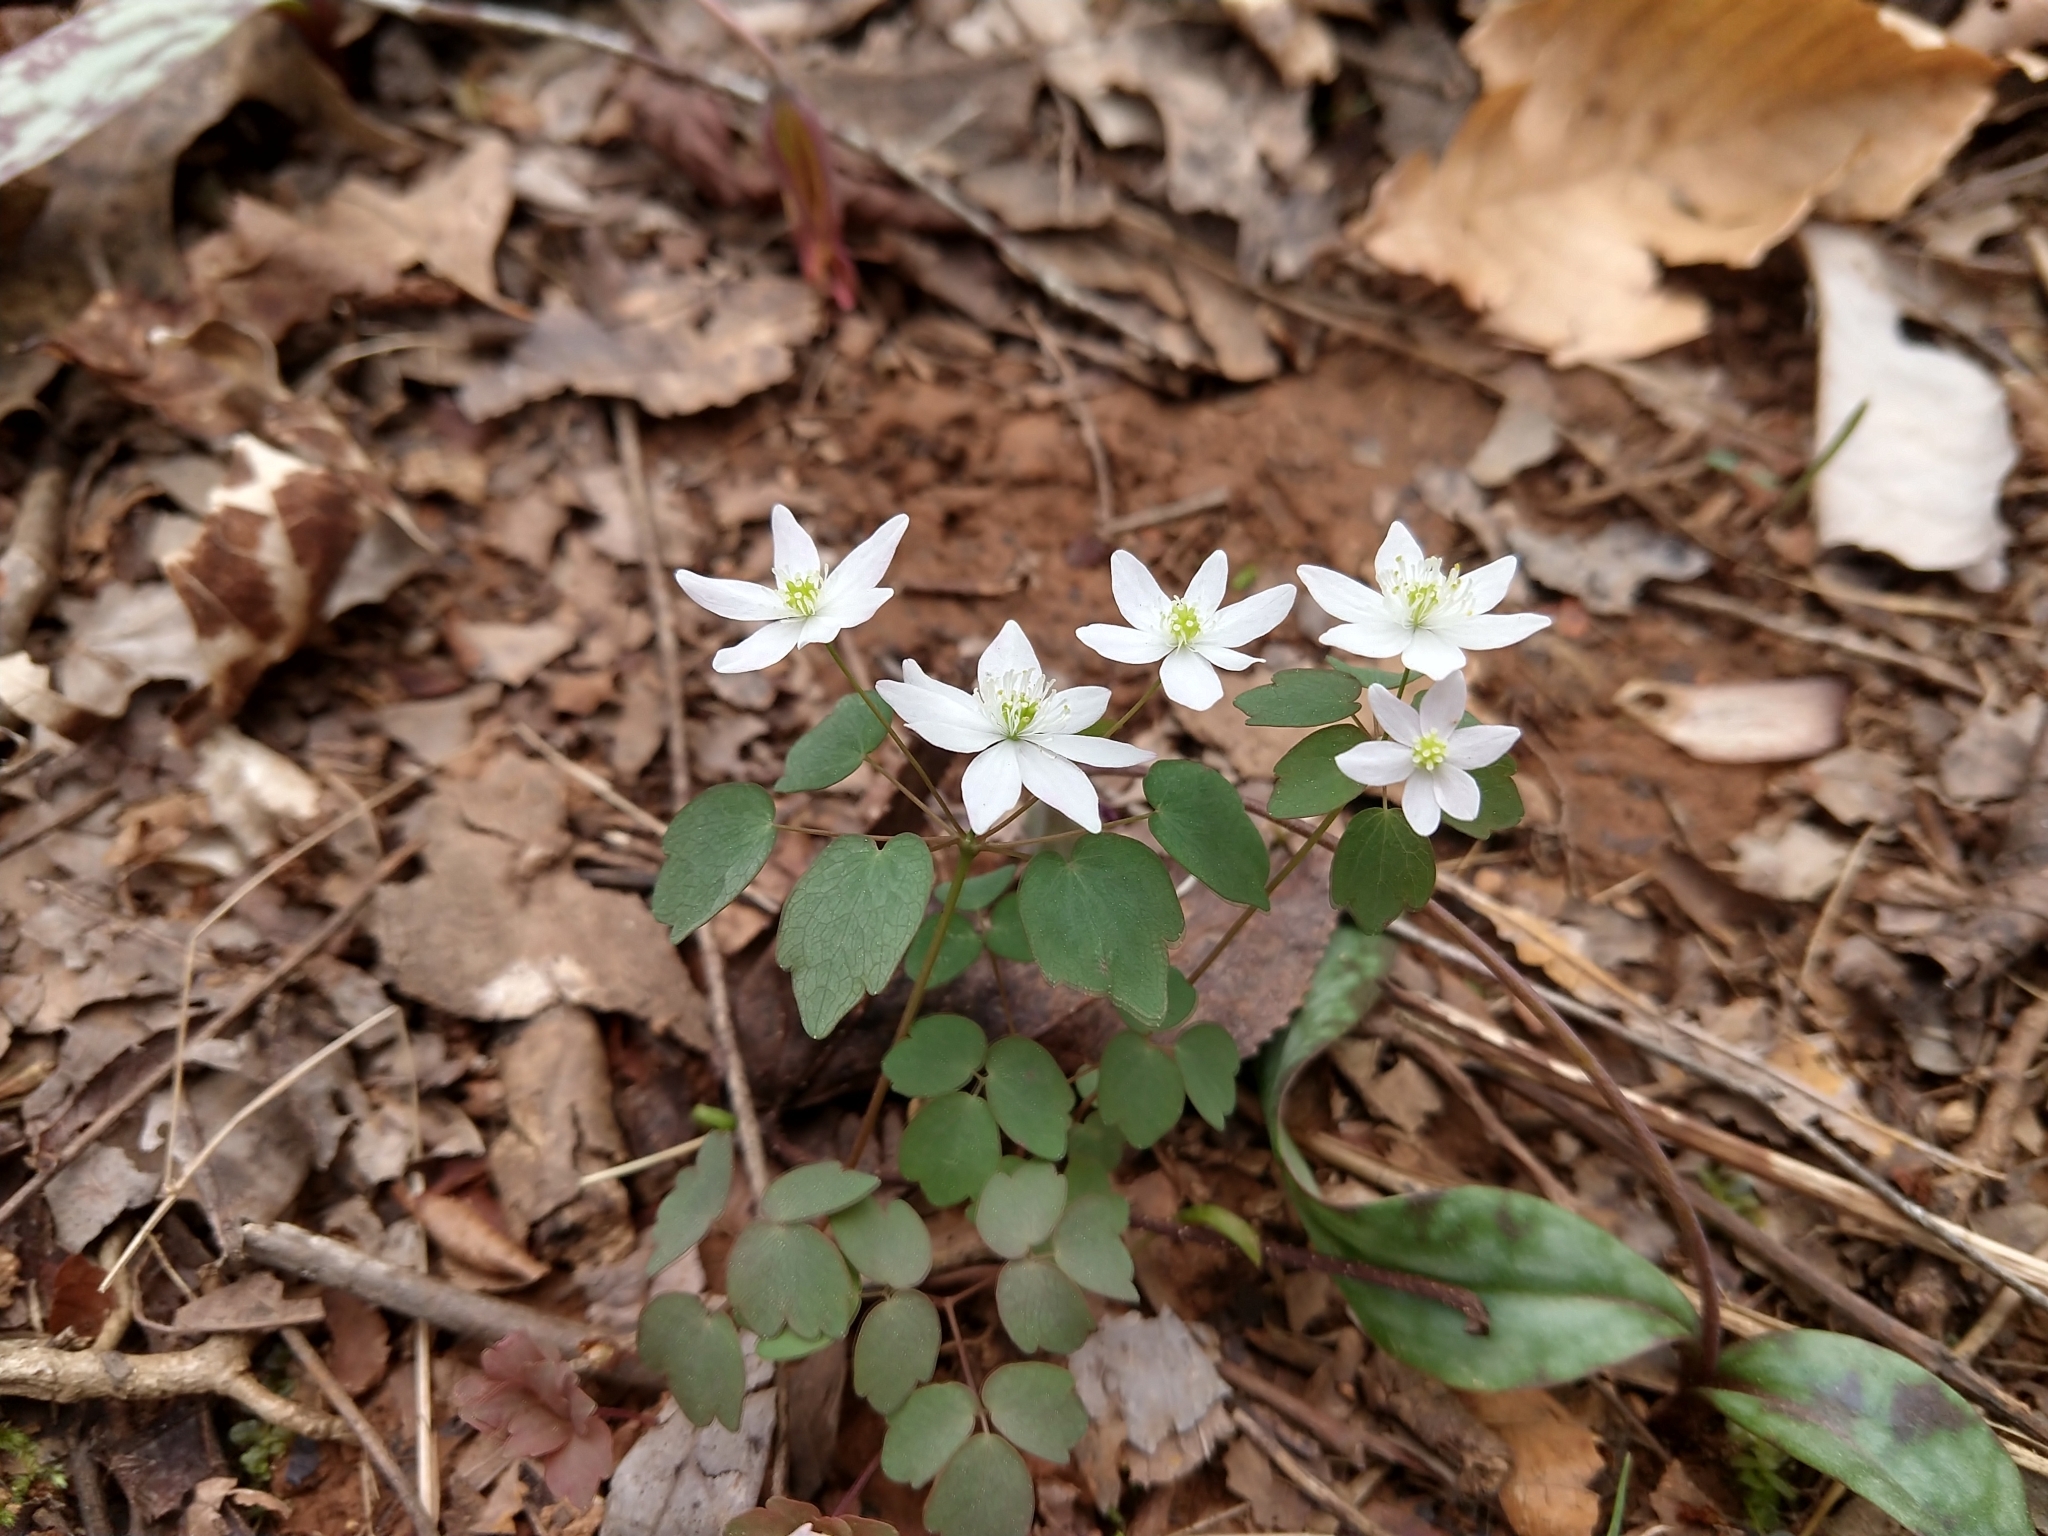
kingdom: Plantae
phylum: Tracheophyta
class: Magnoliopsida
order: Ranunculales
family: Ranunculaceae
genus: Thalictrum
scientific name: Thalictrum thalictroides
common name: Rue-anemone
